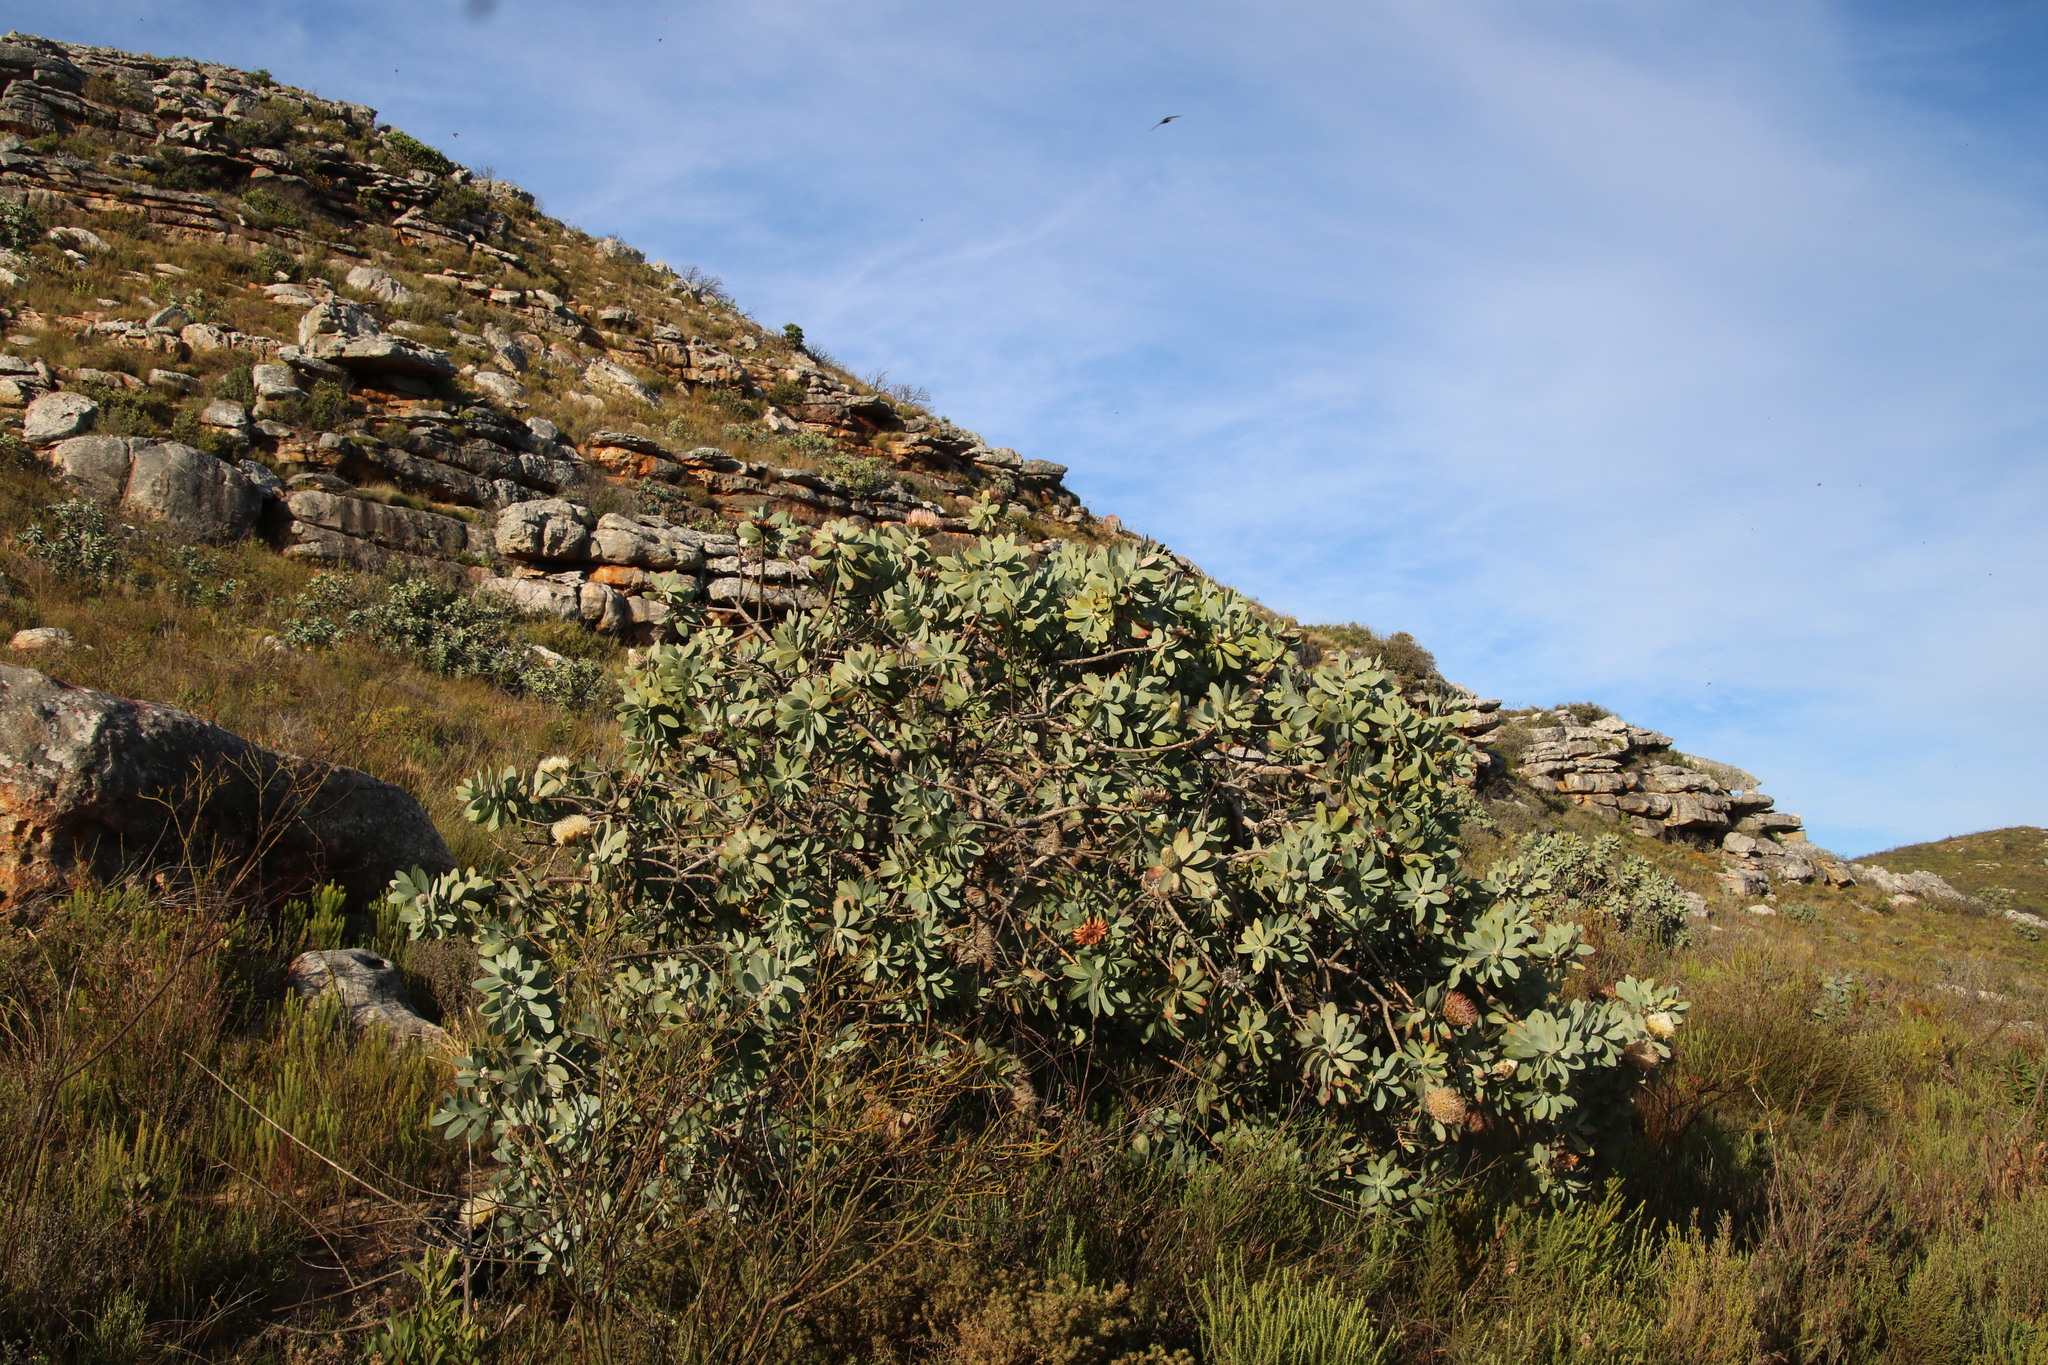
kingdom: Plantae
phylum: Tracheophyta
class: Magnoliopsida
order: Proteales
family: Proteaceae
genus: Protea
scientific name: Protea nitida
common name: Tree protea
